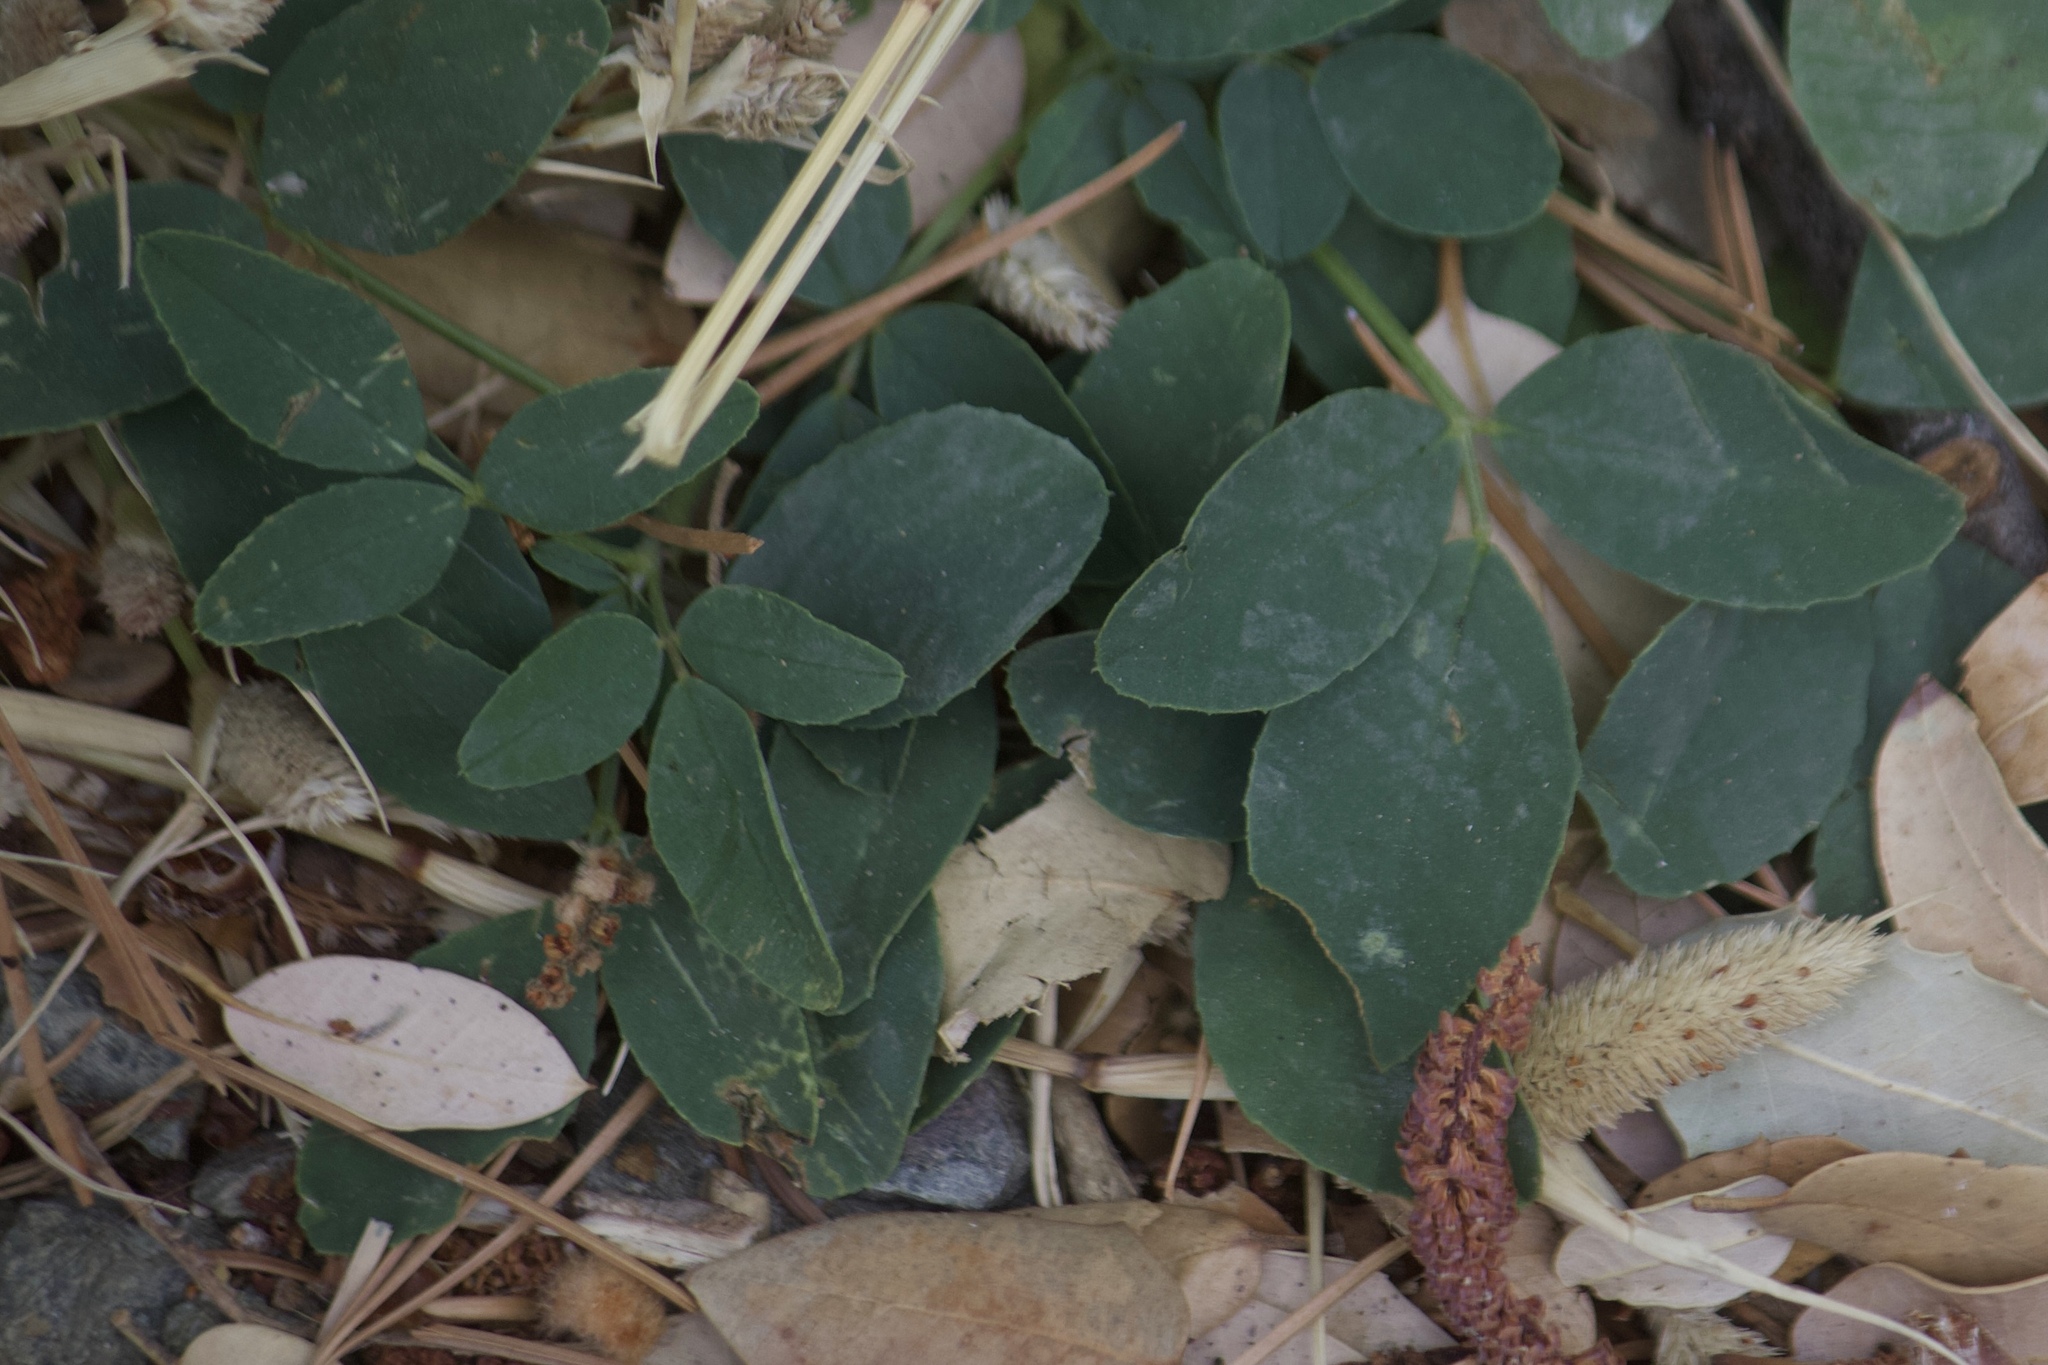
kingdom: Plantae
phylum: Tracheophyta
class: Magnoliopsida
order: Fabales
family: Fabaceae
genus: Melilotus
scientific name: Melilotus albus
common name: White melilot
